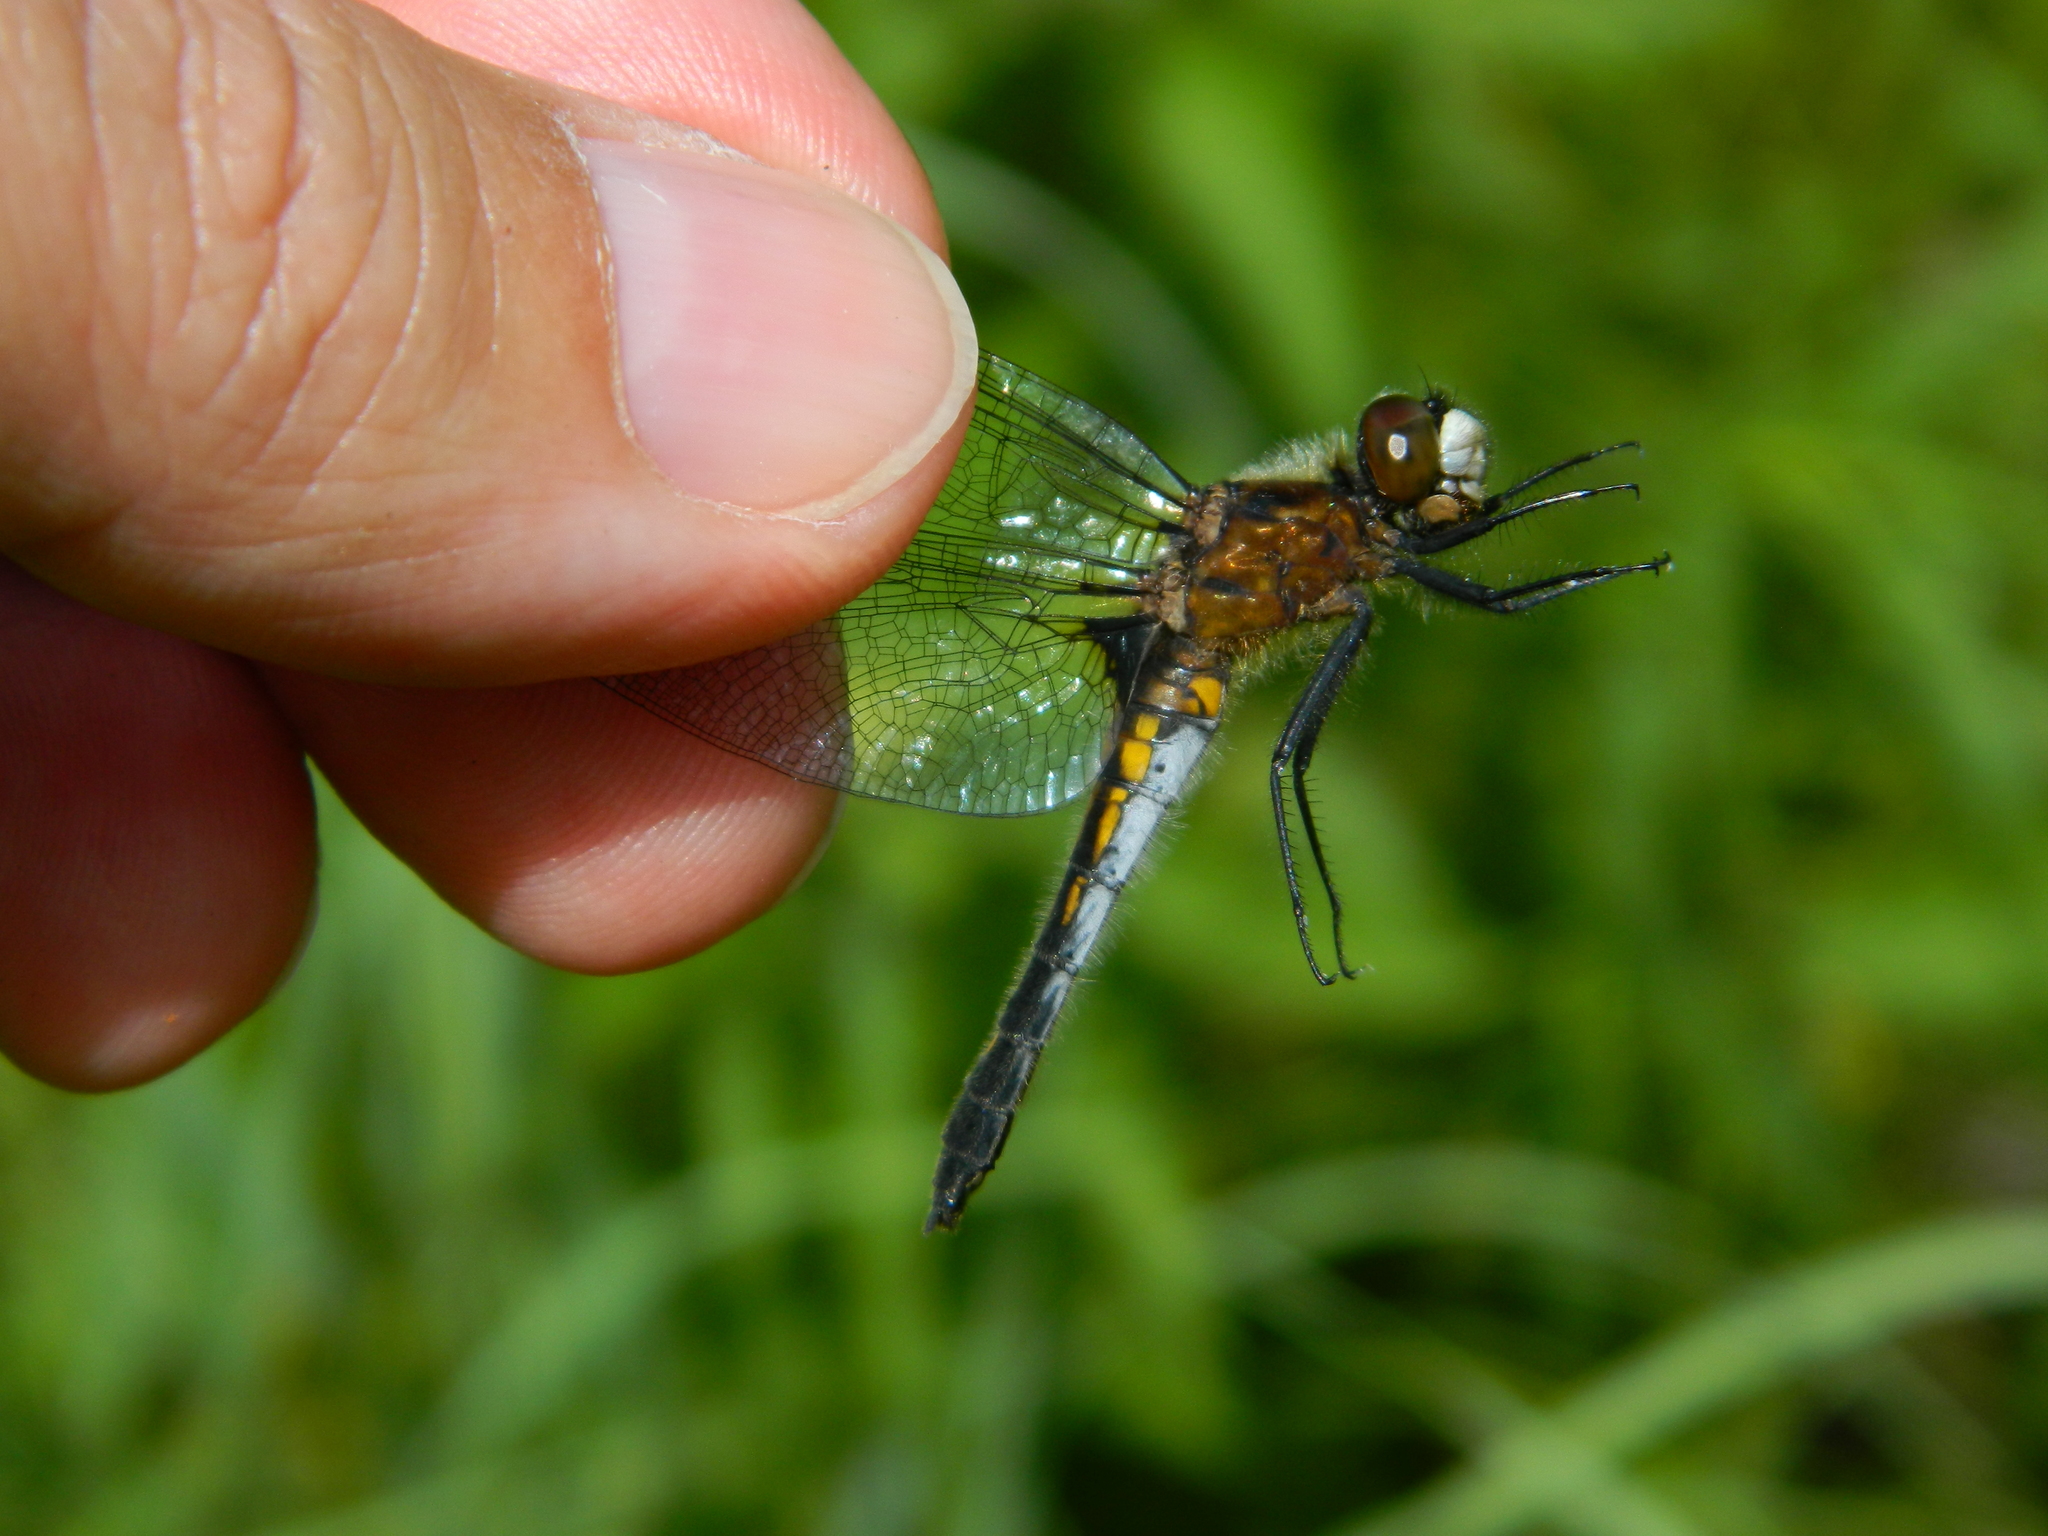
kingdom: Animalia
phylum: Arthropoda
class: Insecta
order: Odonata
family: Libellulidae
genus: Leucorrhinia
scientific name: Leucorrhinia intacta
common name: Dot-tailed whiteface
